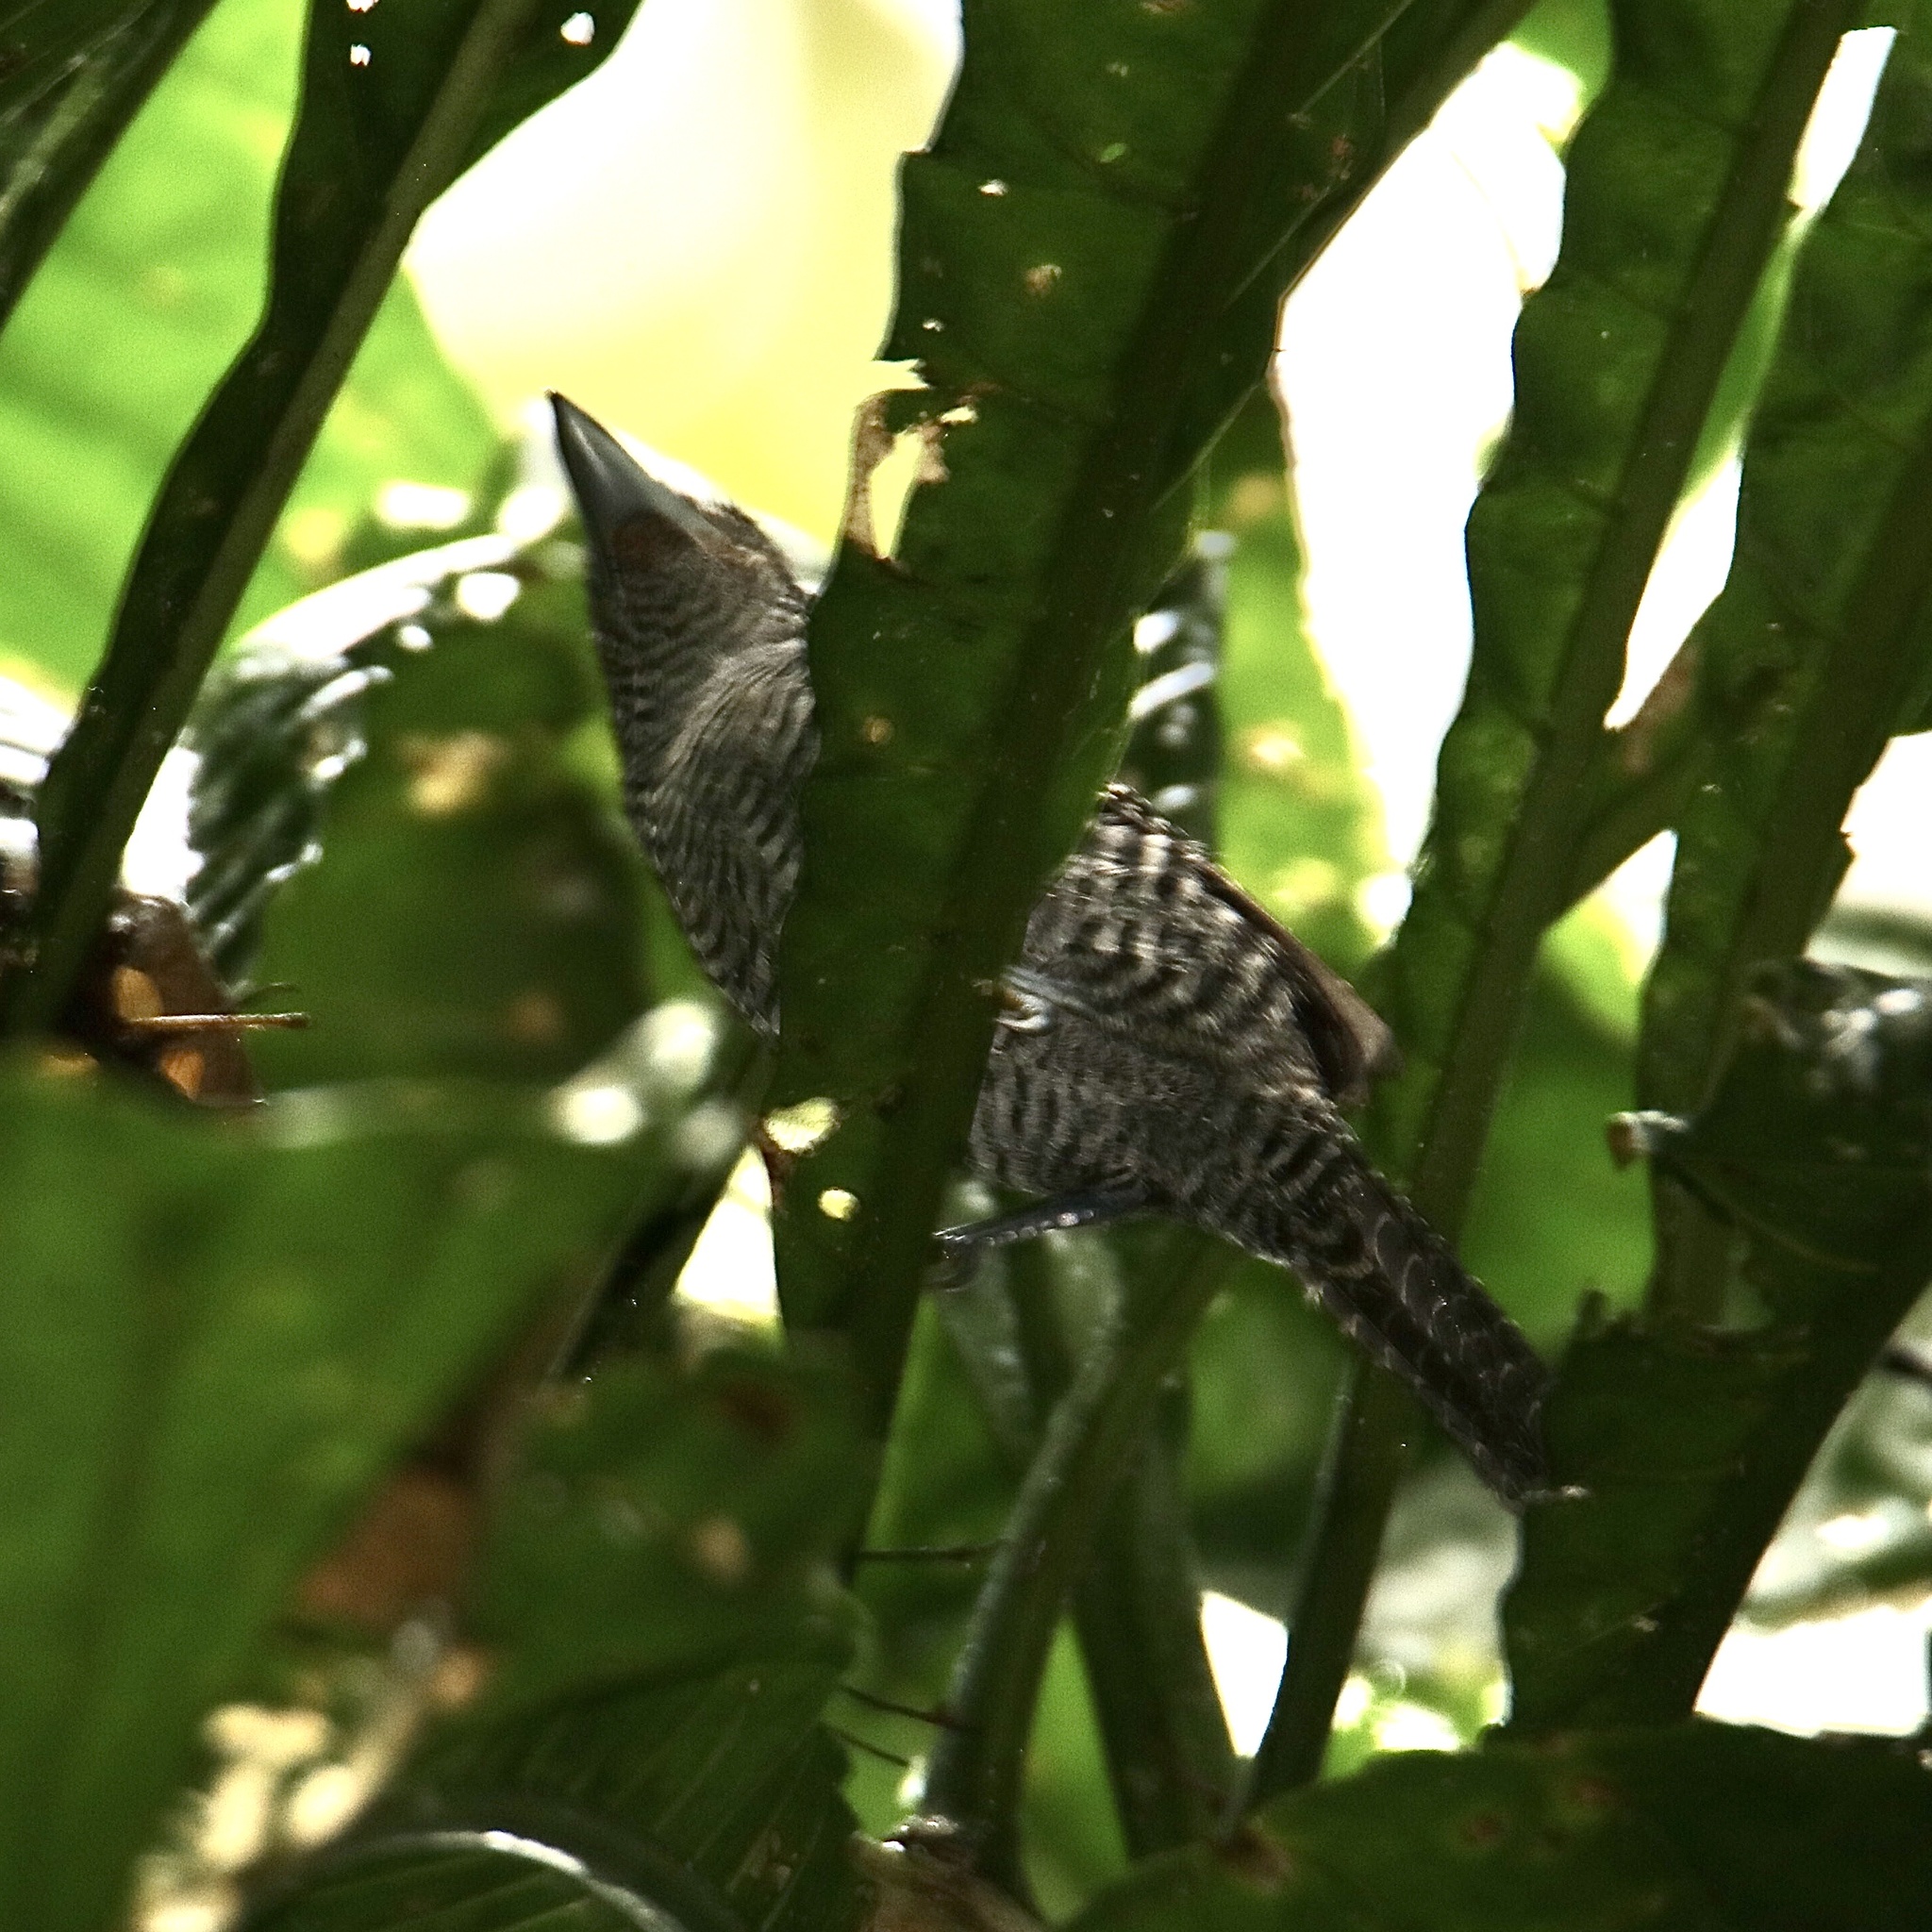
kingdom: Animalia
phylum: Chordata
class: Aves
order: Passeriformes
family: Thamnophilidae
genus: Cymbilaimus
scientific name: Cymbilaimus lineatus
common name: Fasciated antshrike
